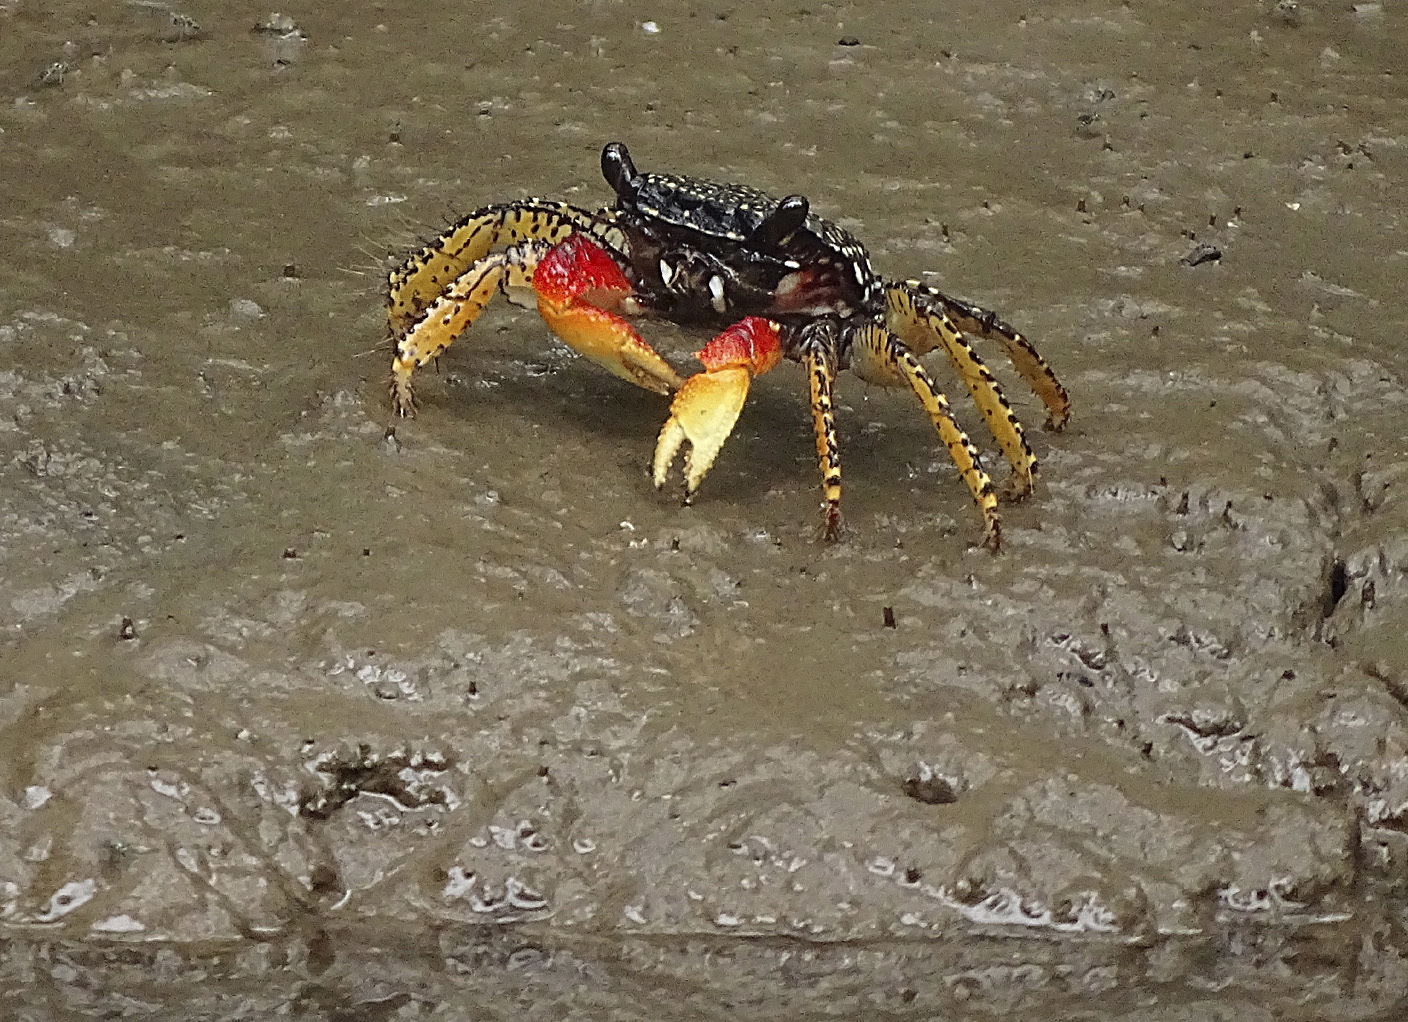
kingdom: Animalia
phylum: Arthropoda
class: Malacostraca
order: Decapoda
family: Grapsidae
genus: Goniopsis
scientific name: Goniopsis pulchra
